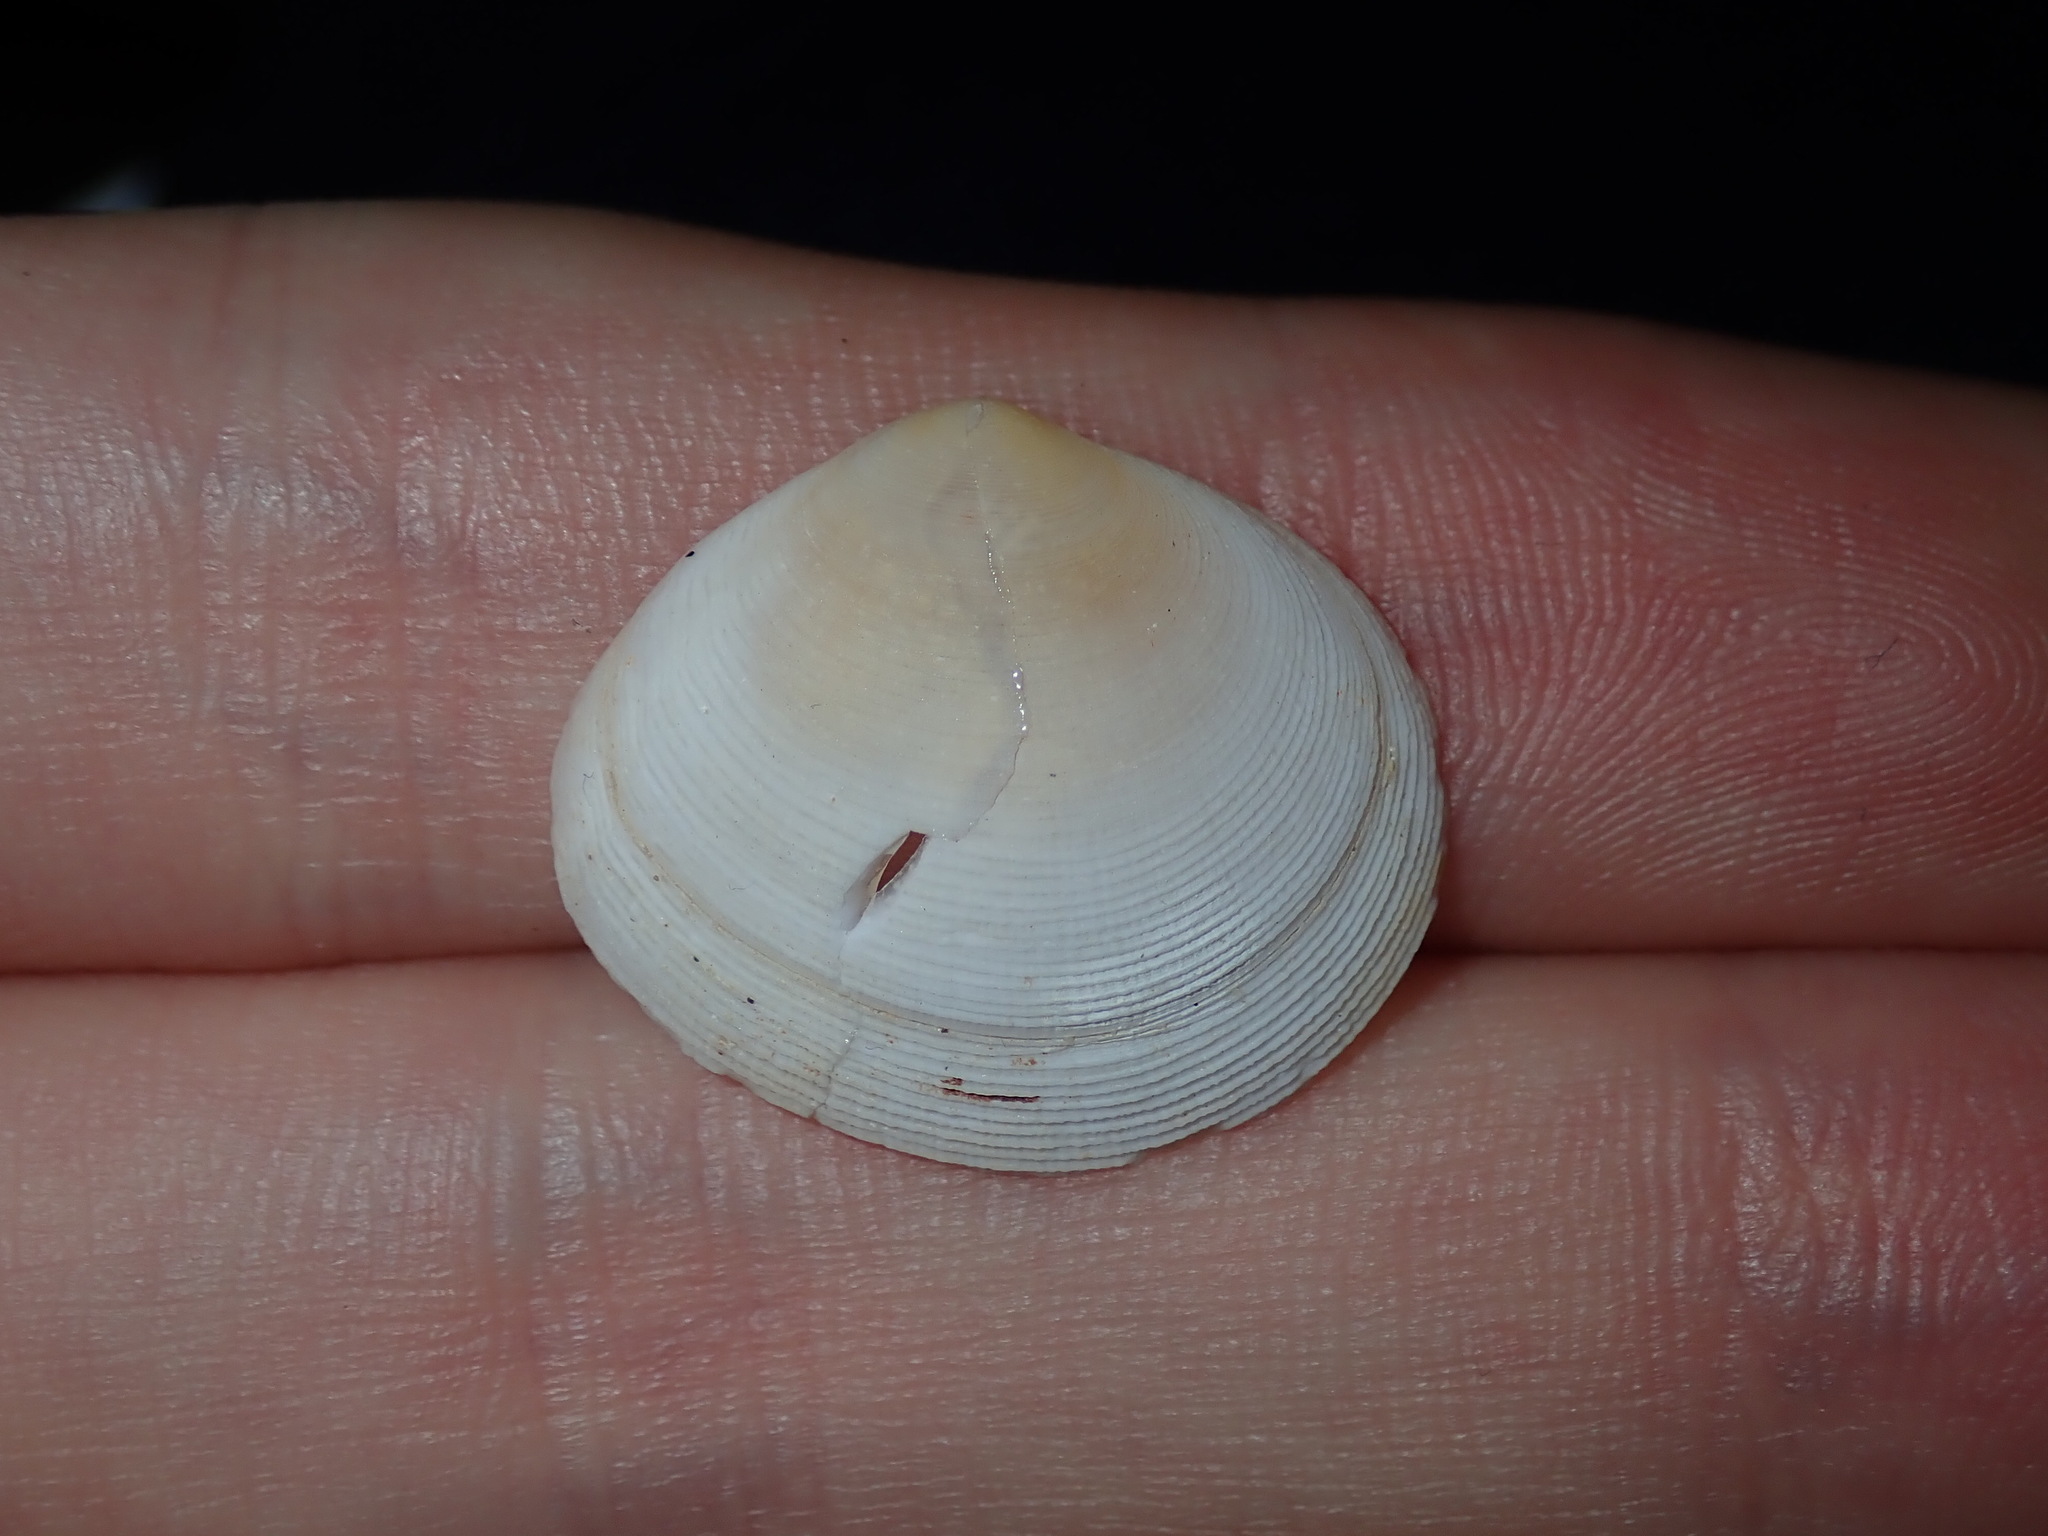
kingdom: Animalia
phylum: Mollusca
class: Bivalvia
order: Cardiida
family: Tellinidae
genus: Pseudarcopagia
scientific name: Pseudarcopagia botanica
